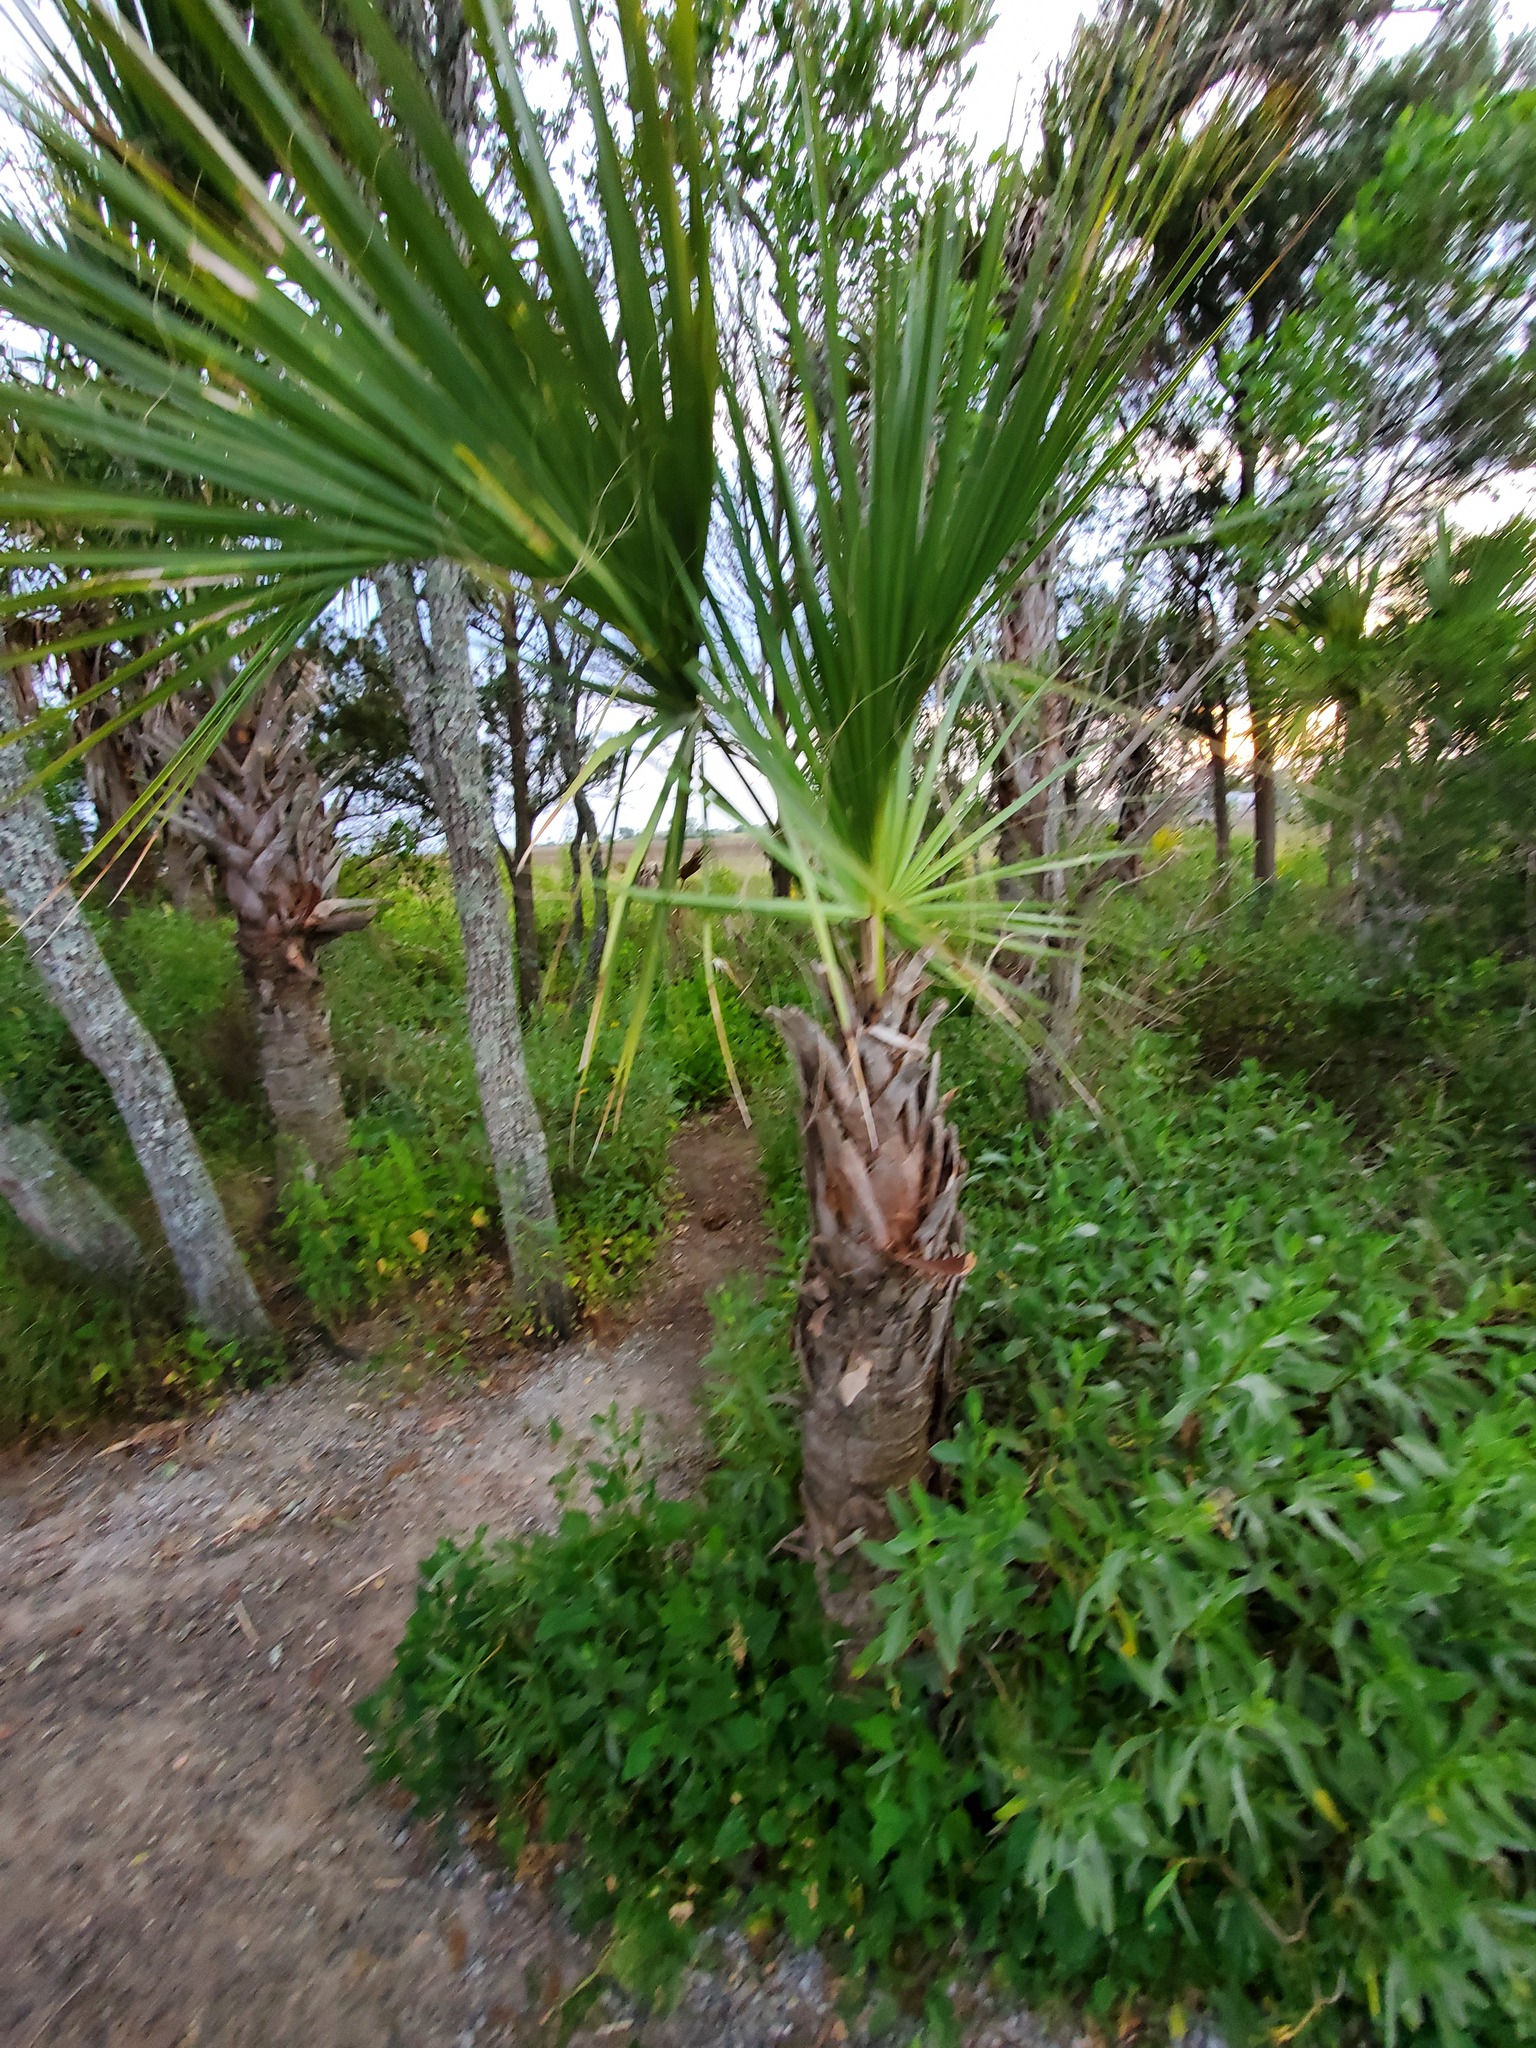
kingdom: Plantae
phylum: Tracheophyta
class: Liliopsida
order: Arecales
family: Arecaceae
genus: Sabal
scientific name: Sabal palmetto
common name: Blue palmetto
